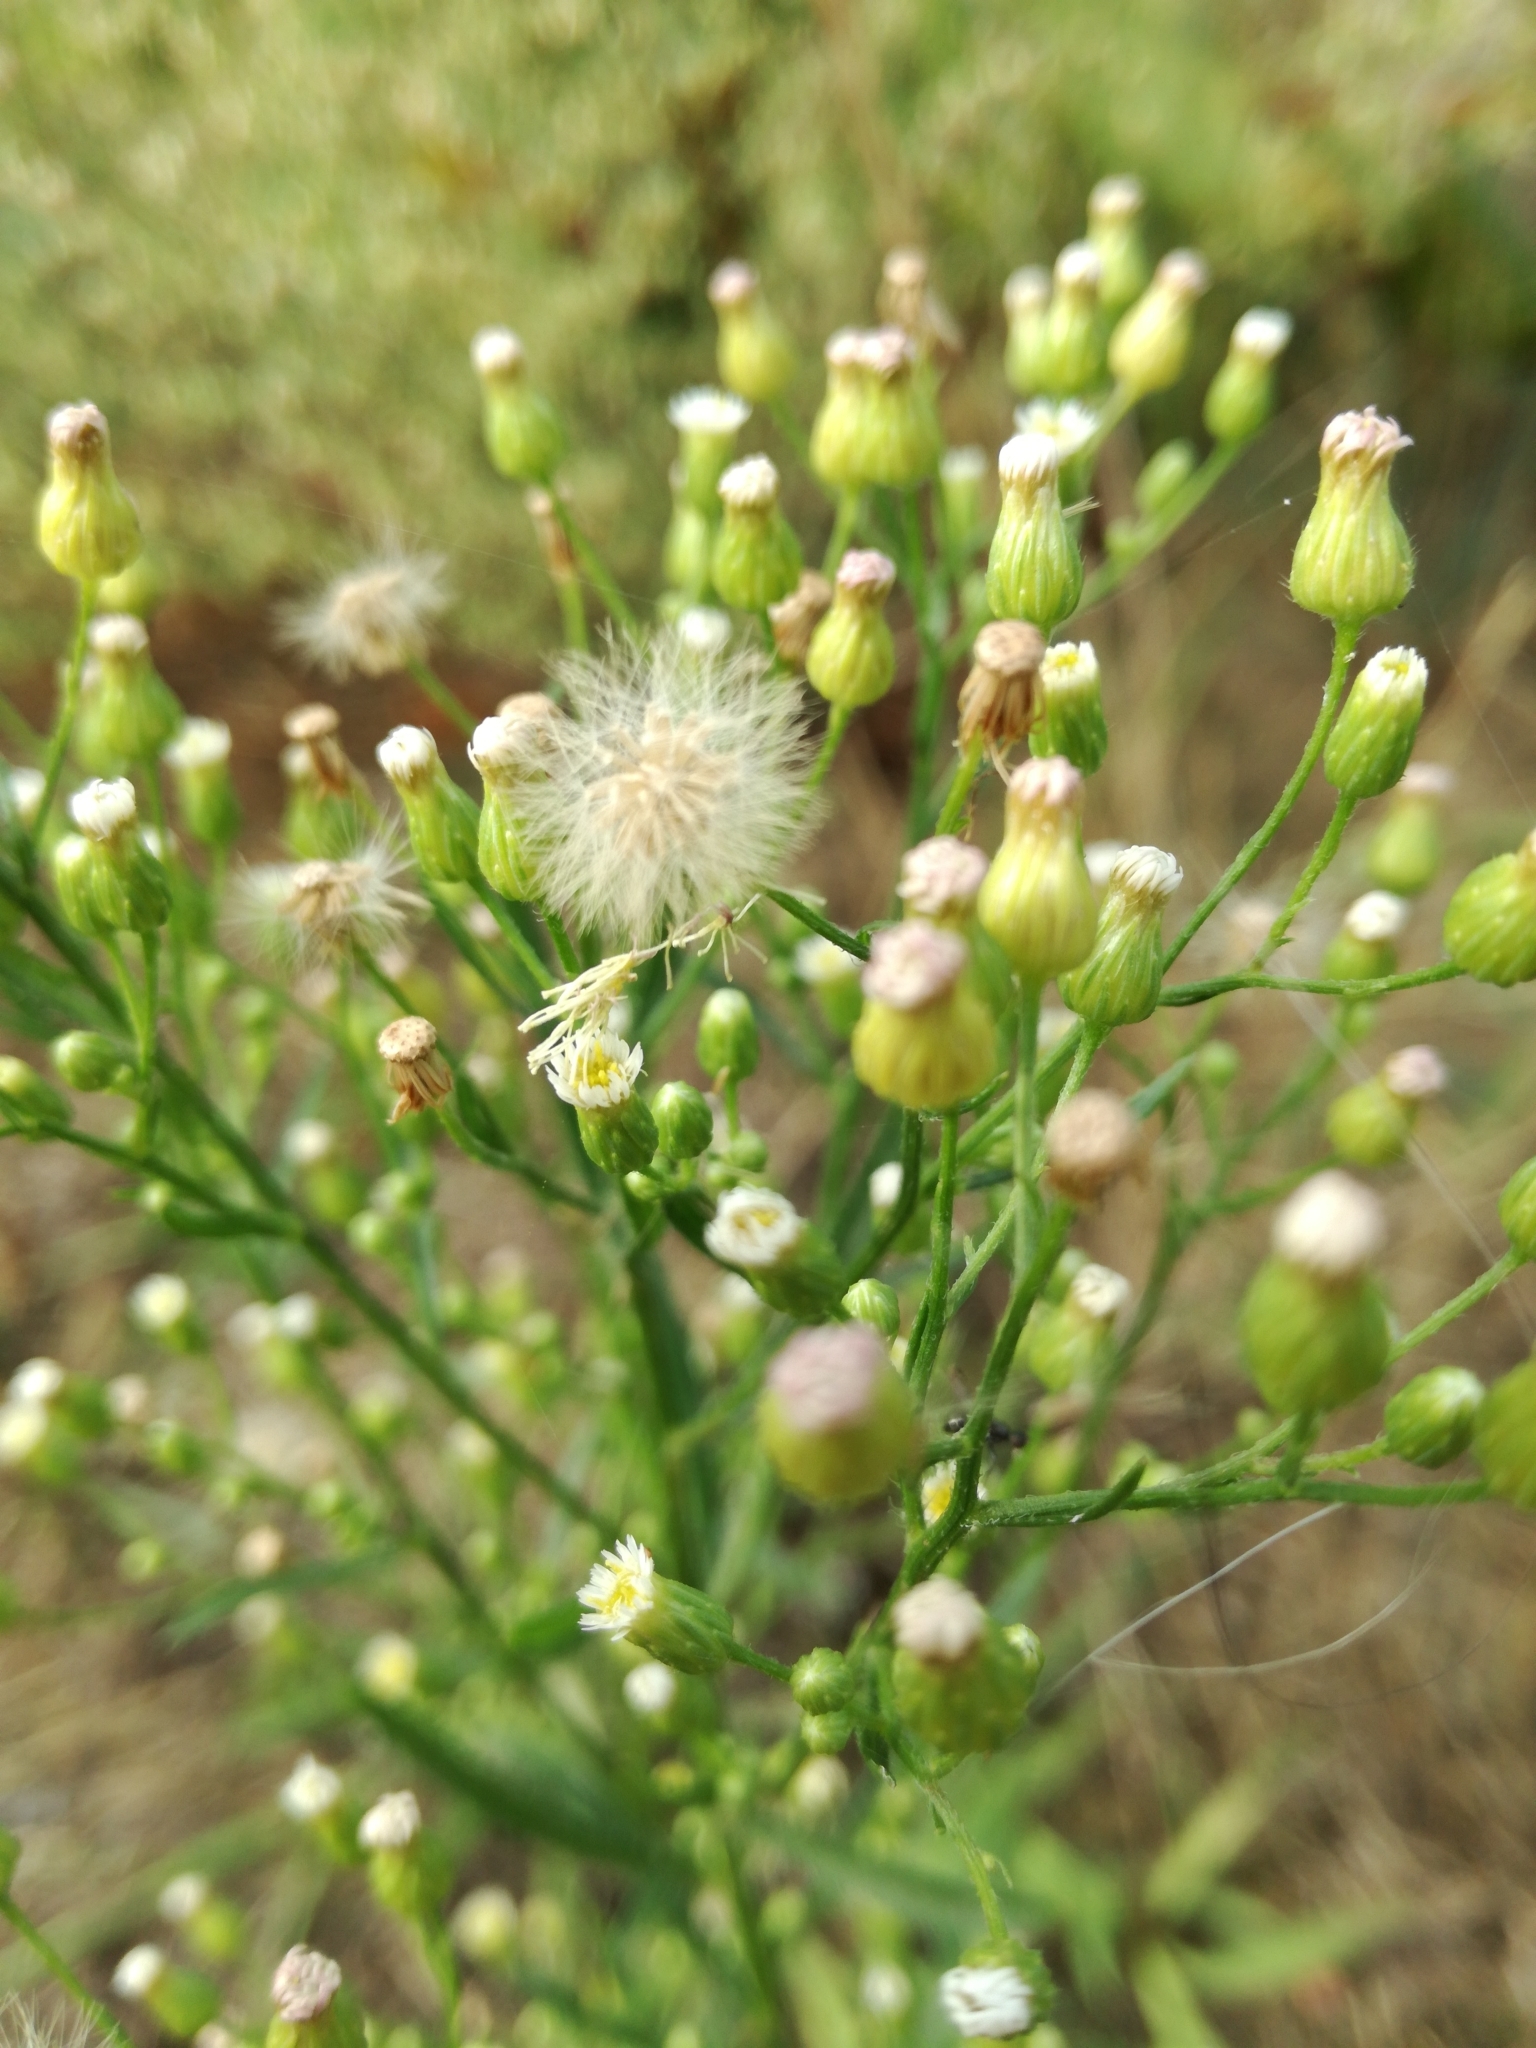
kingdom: Plantae
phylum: Tracheophyta
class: Magnoliopsida
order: Asterales
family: Asteraceae
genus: Erigeron
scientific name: Erigeron canadensis
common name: Canadian fleabane
